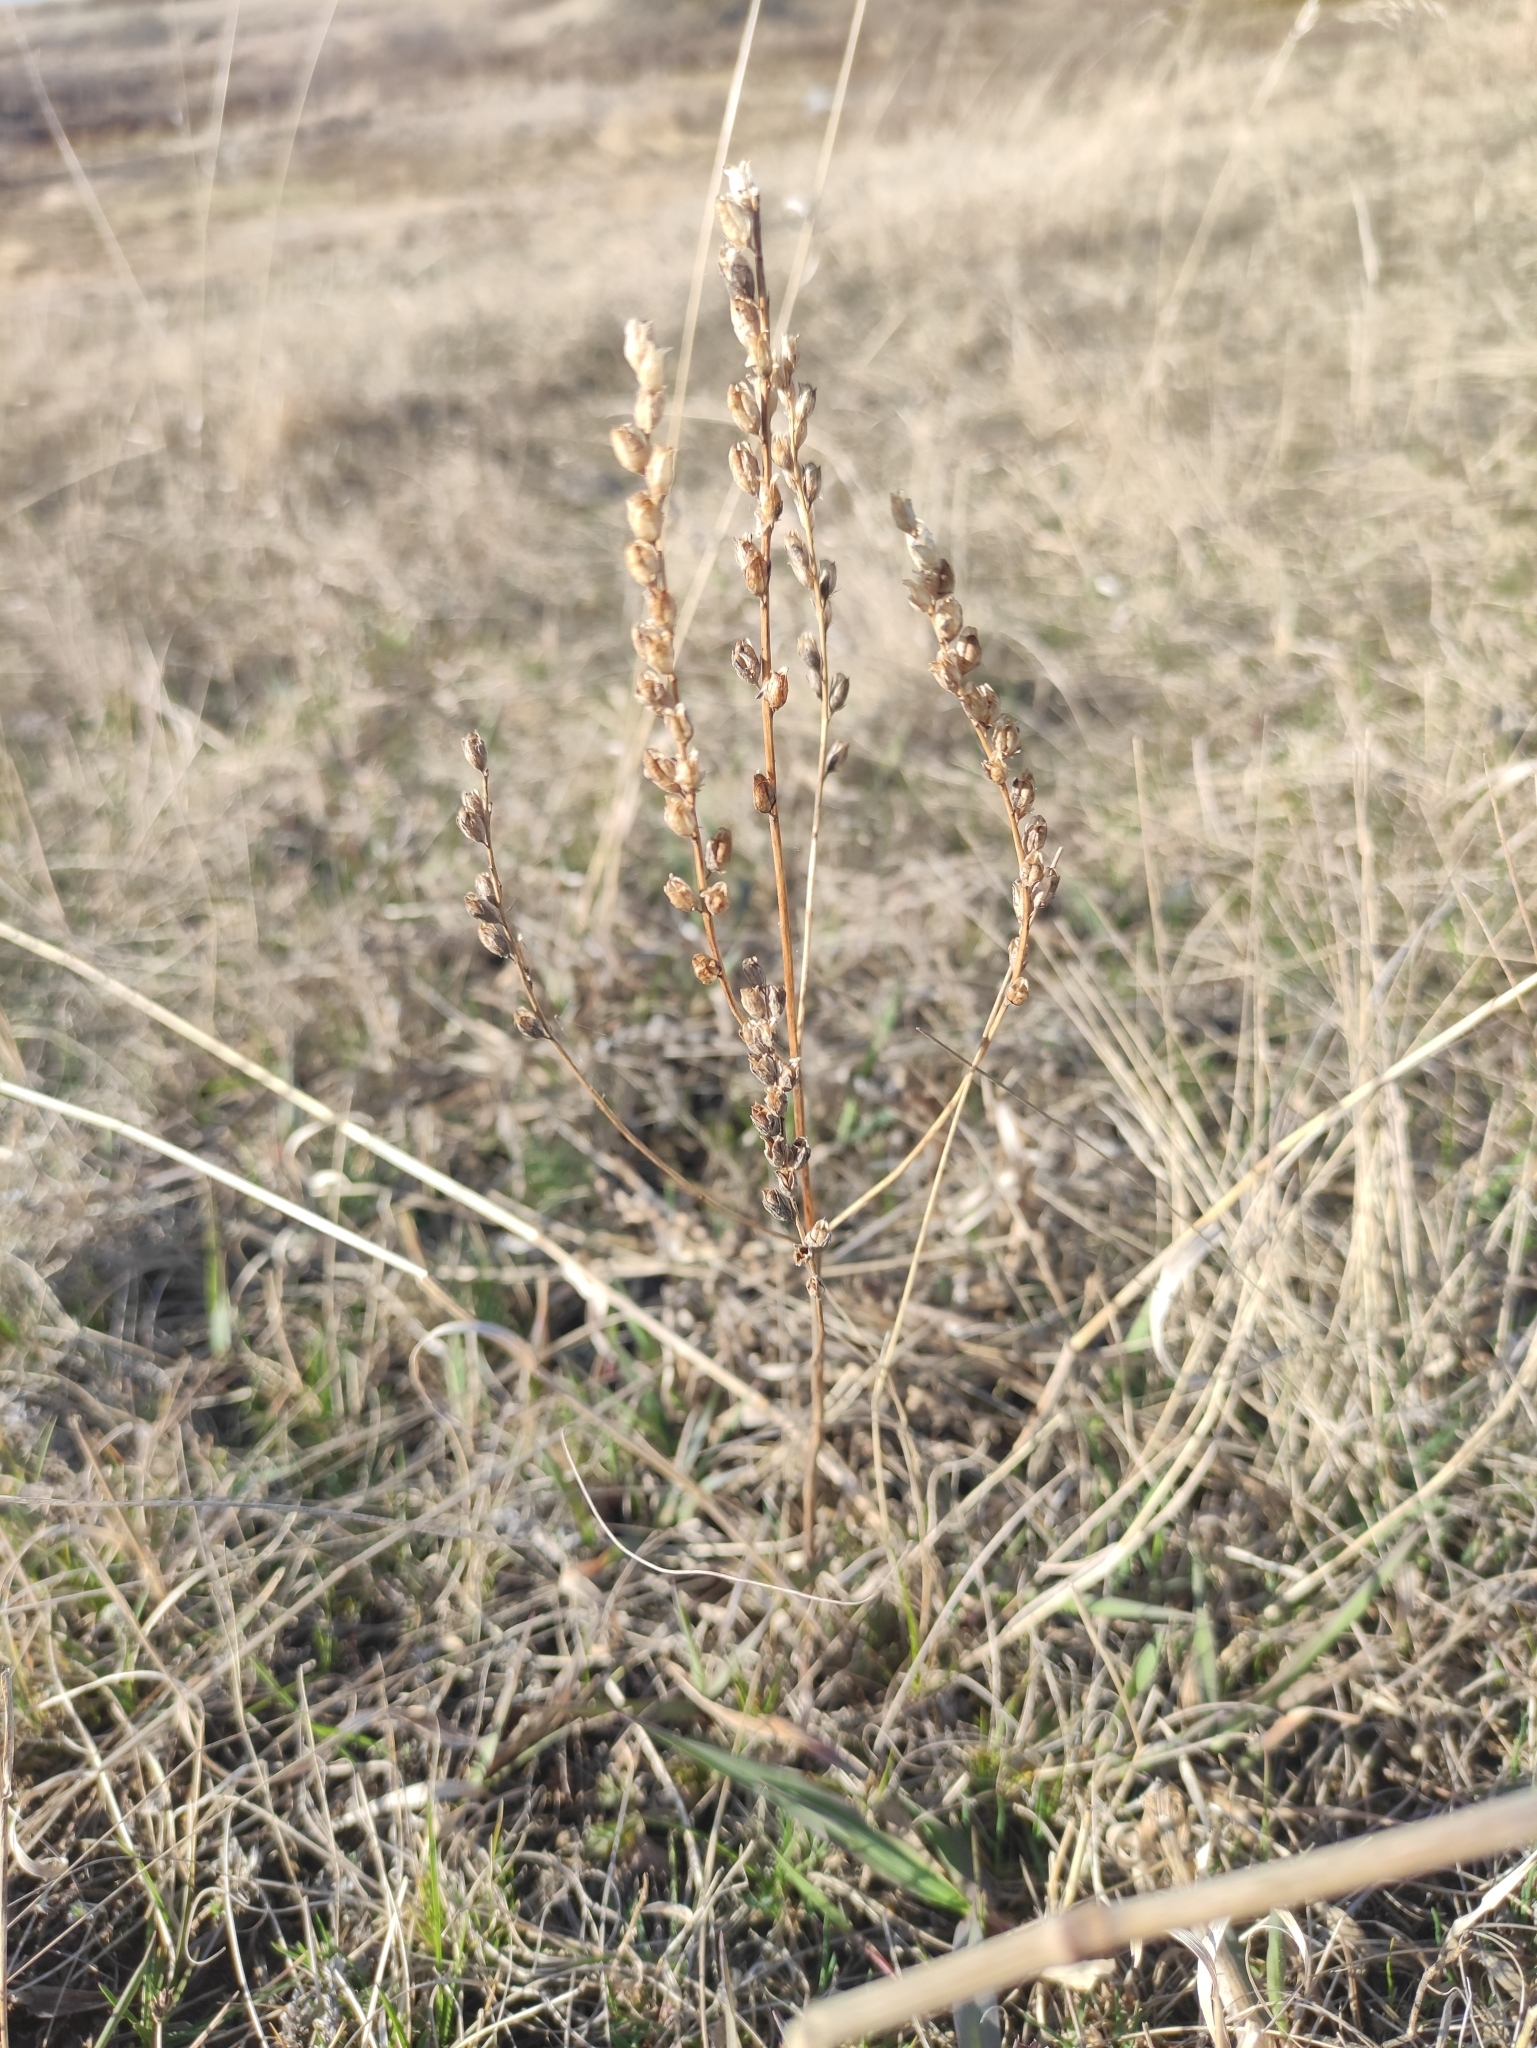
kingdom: Plantae
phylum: Tracheophyta
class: Magnoliopsida
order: Lamiales
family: Orobanchaceae
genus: Odontites
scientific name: Odontites vulgaris
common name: Broomrape
